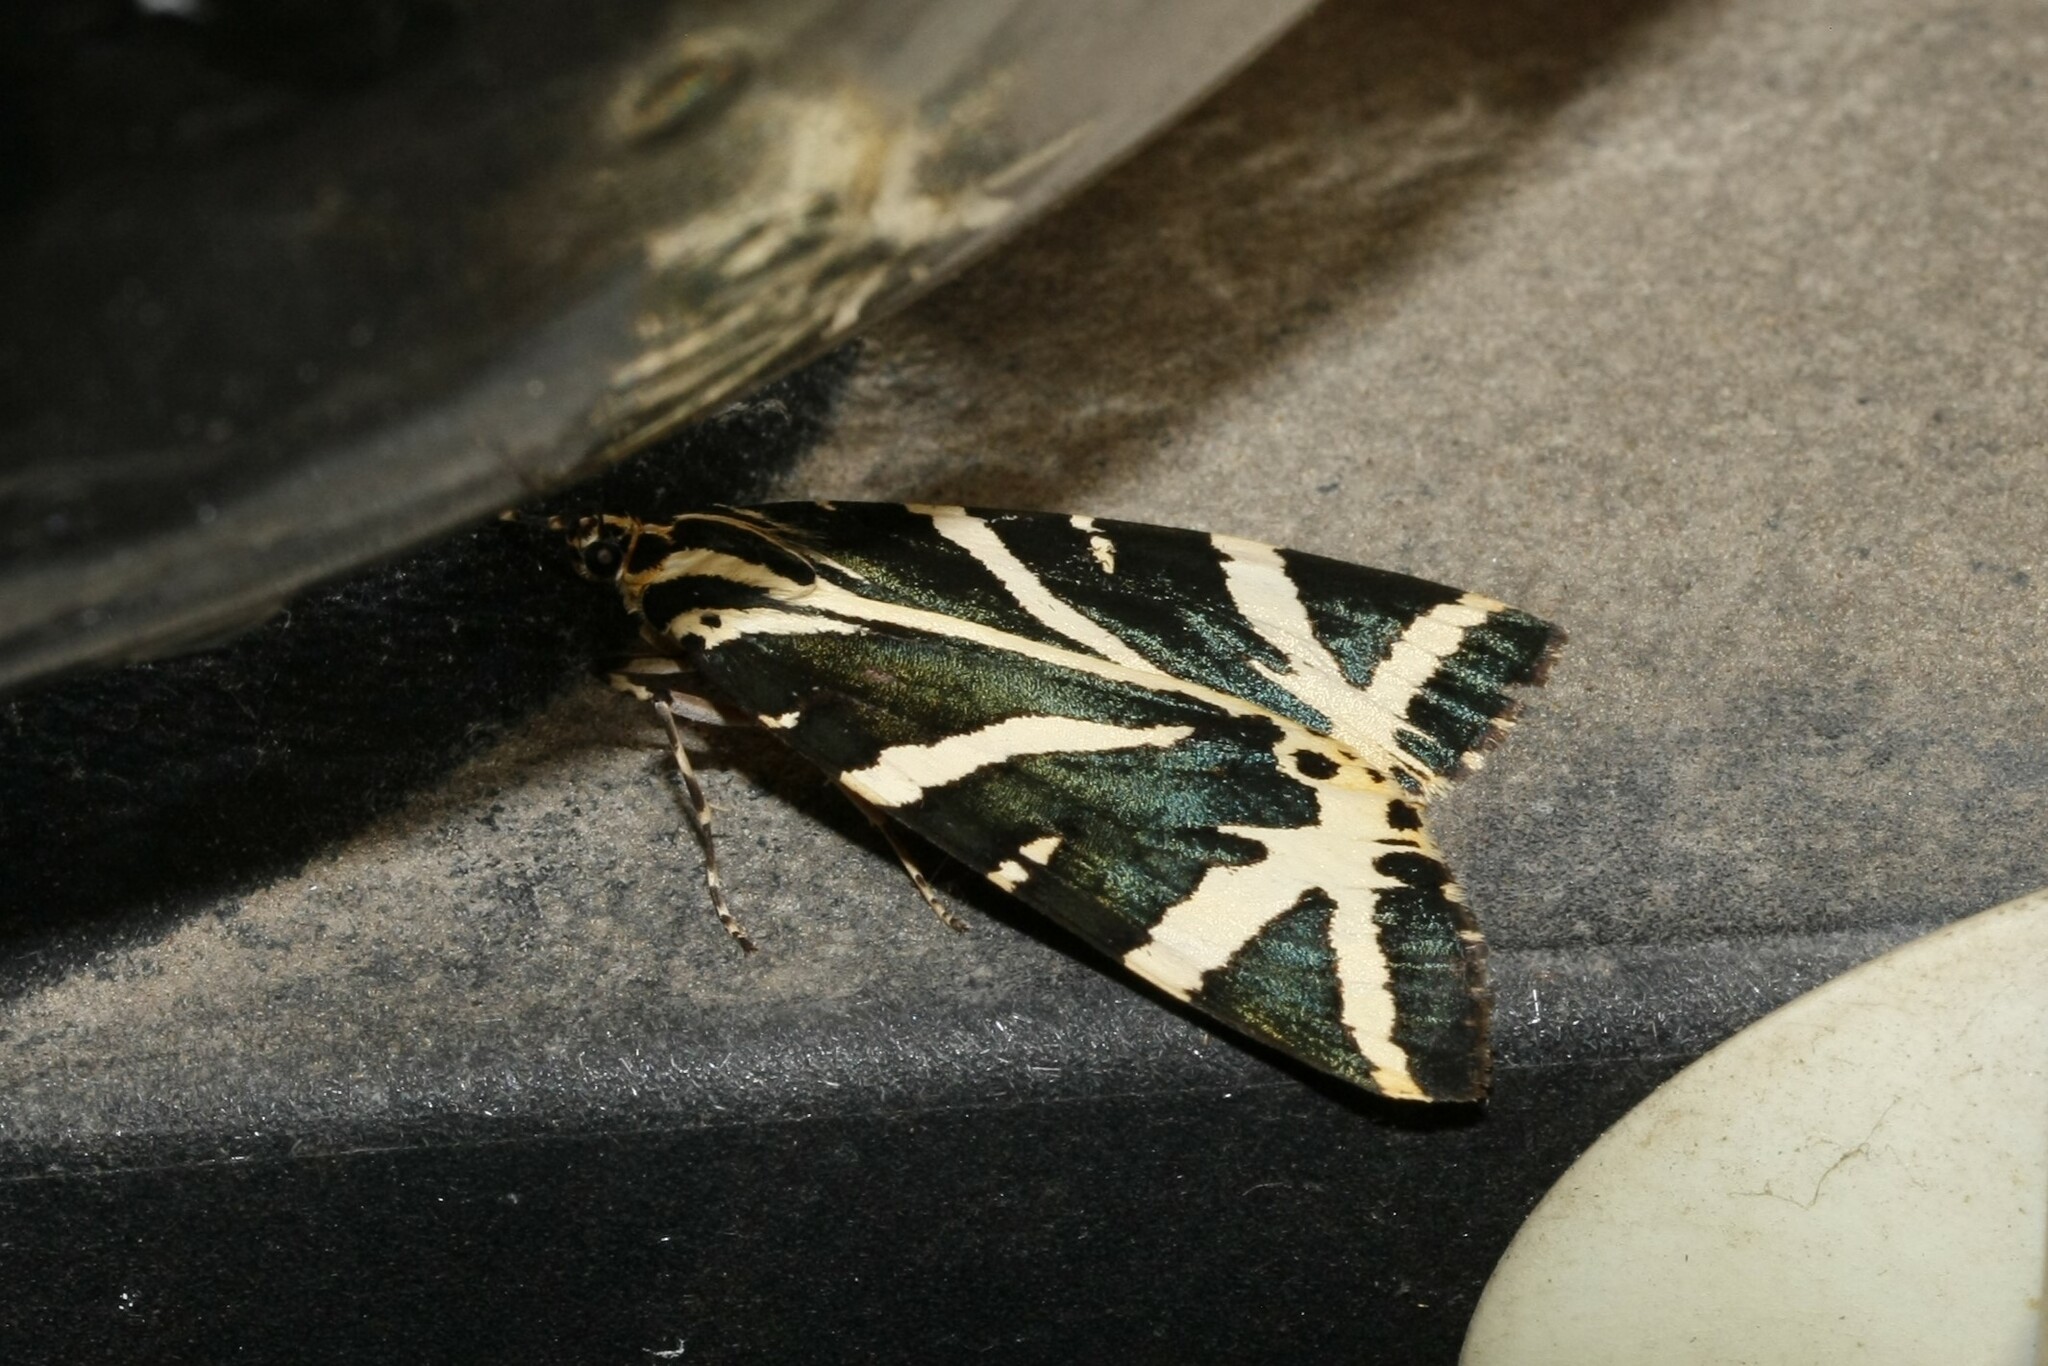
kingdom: Animalia
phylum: Arthropoda
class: Insecta
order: Lepidoptera
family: Erebidae
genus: Euplagia
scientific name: Euplagia quadripunctaria
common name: Jersey tiger
